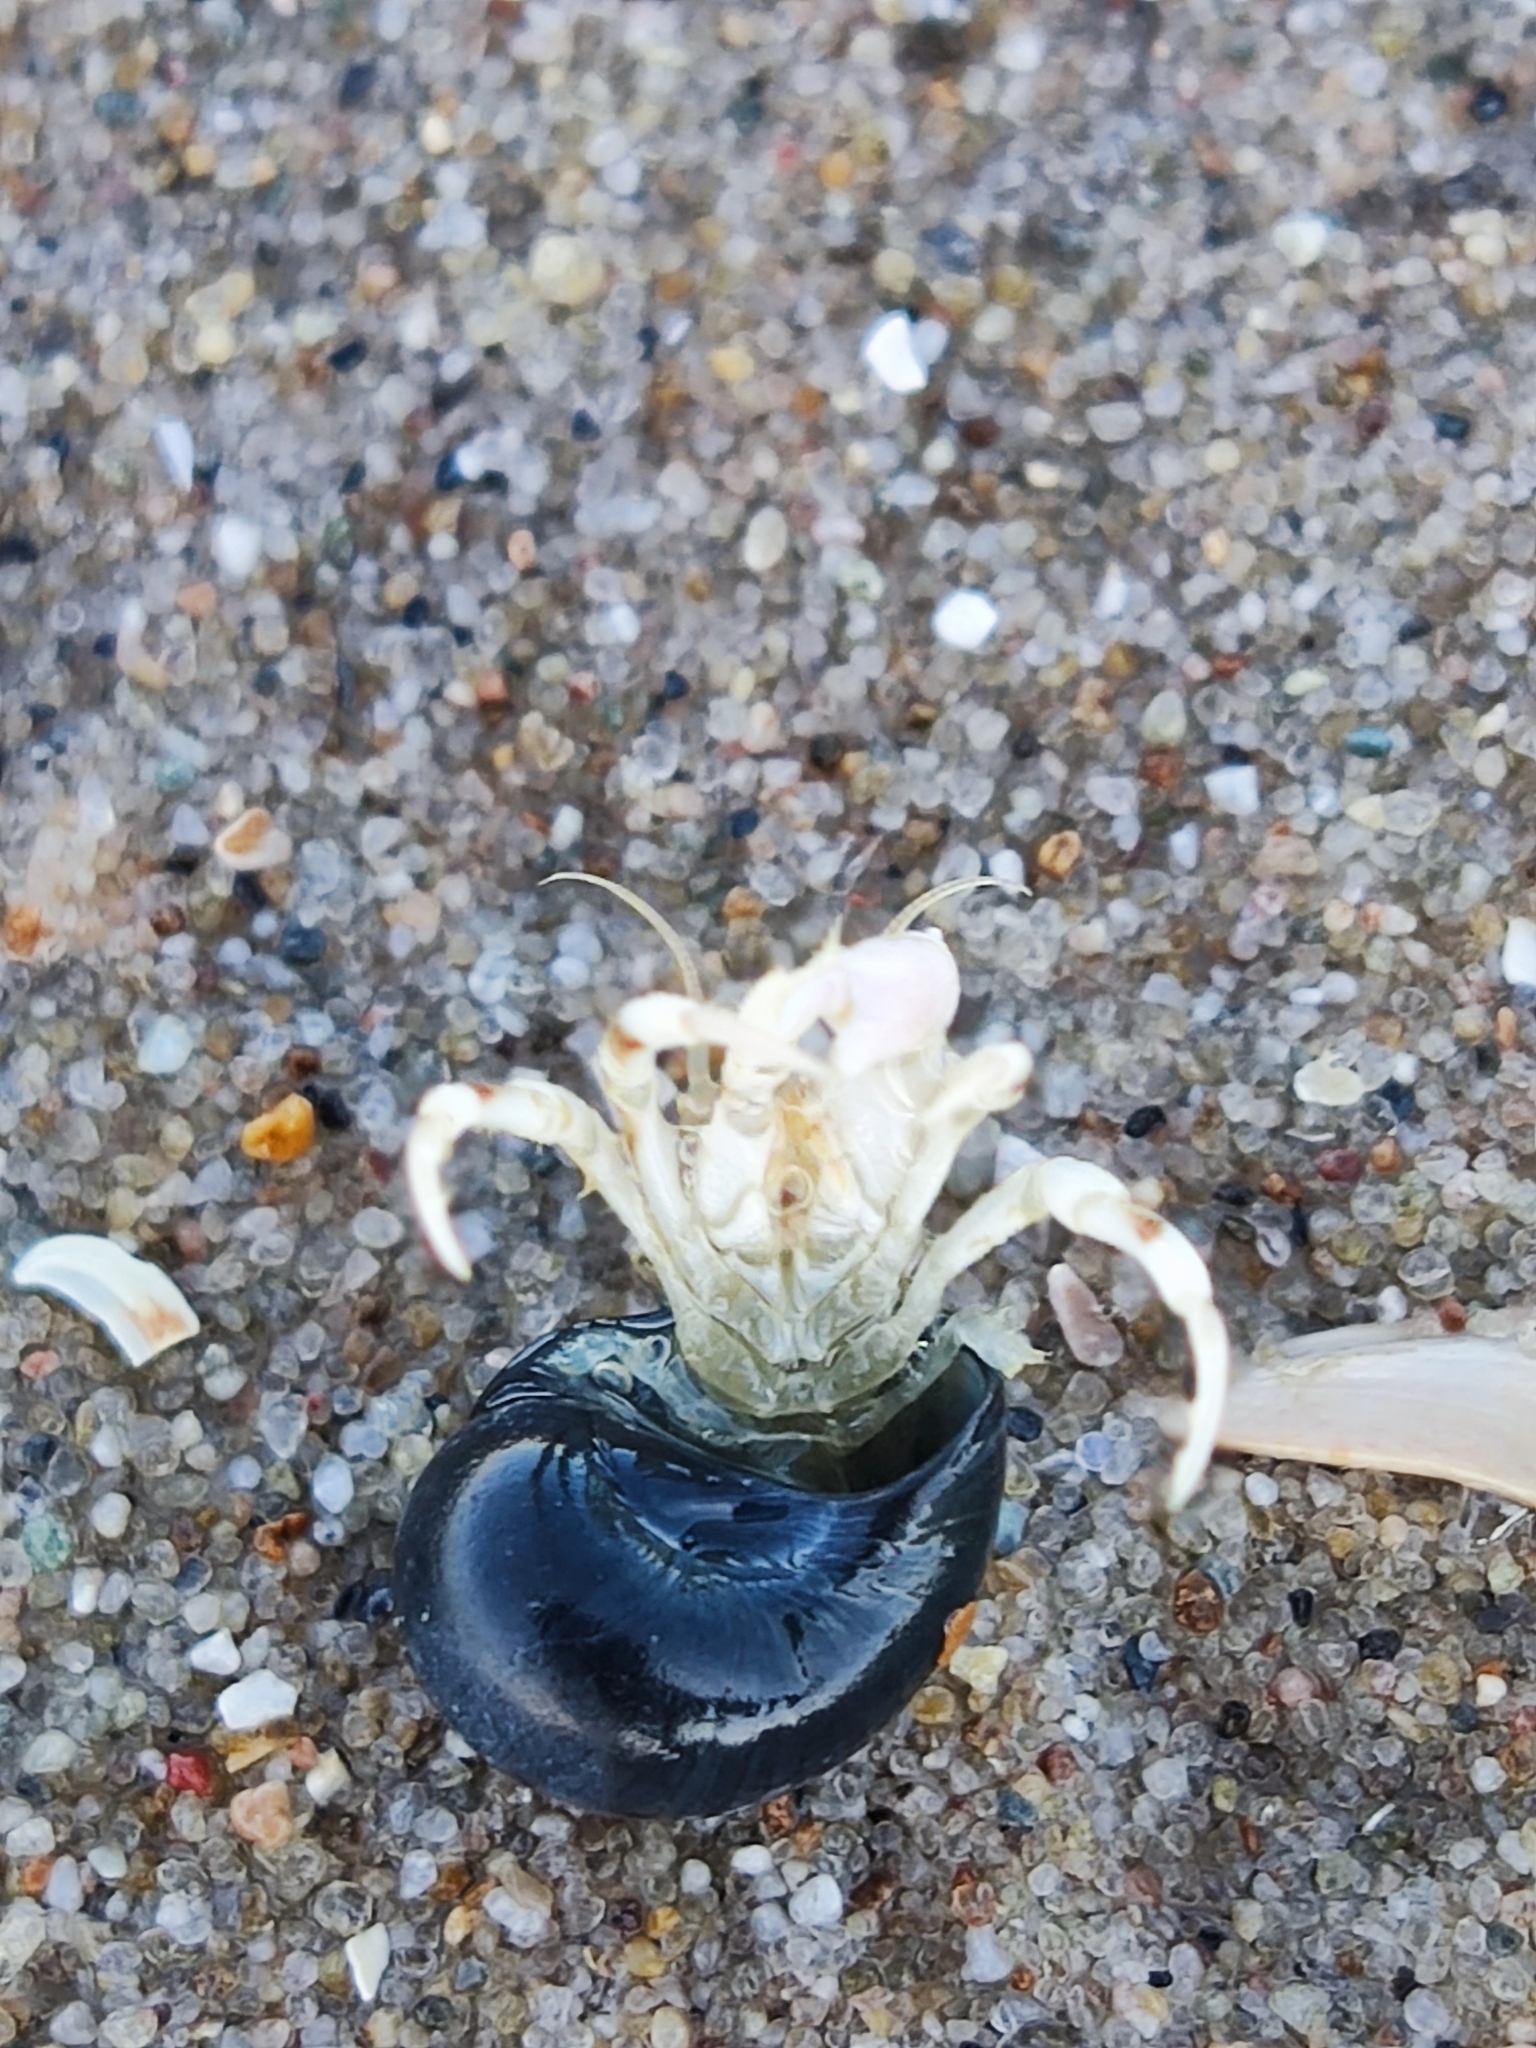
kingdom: Animalia
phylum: Arthropoda
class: Malacostraca
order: Decapoda
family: Diogenidae
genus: Diogenes
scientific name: Diogenes pugilator
